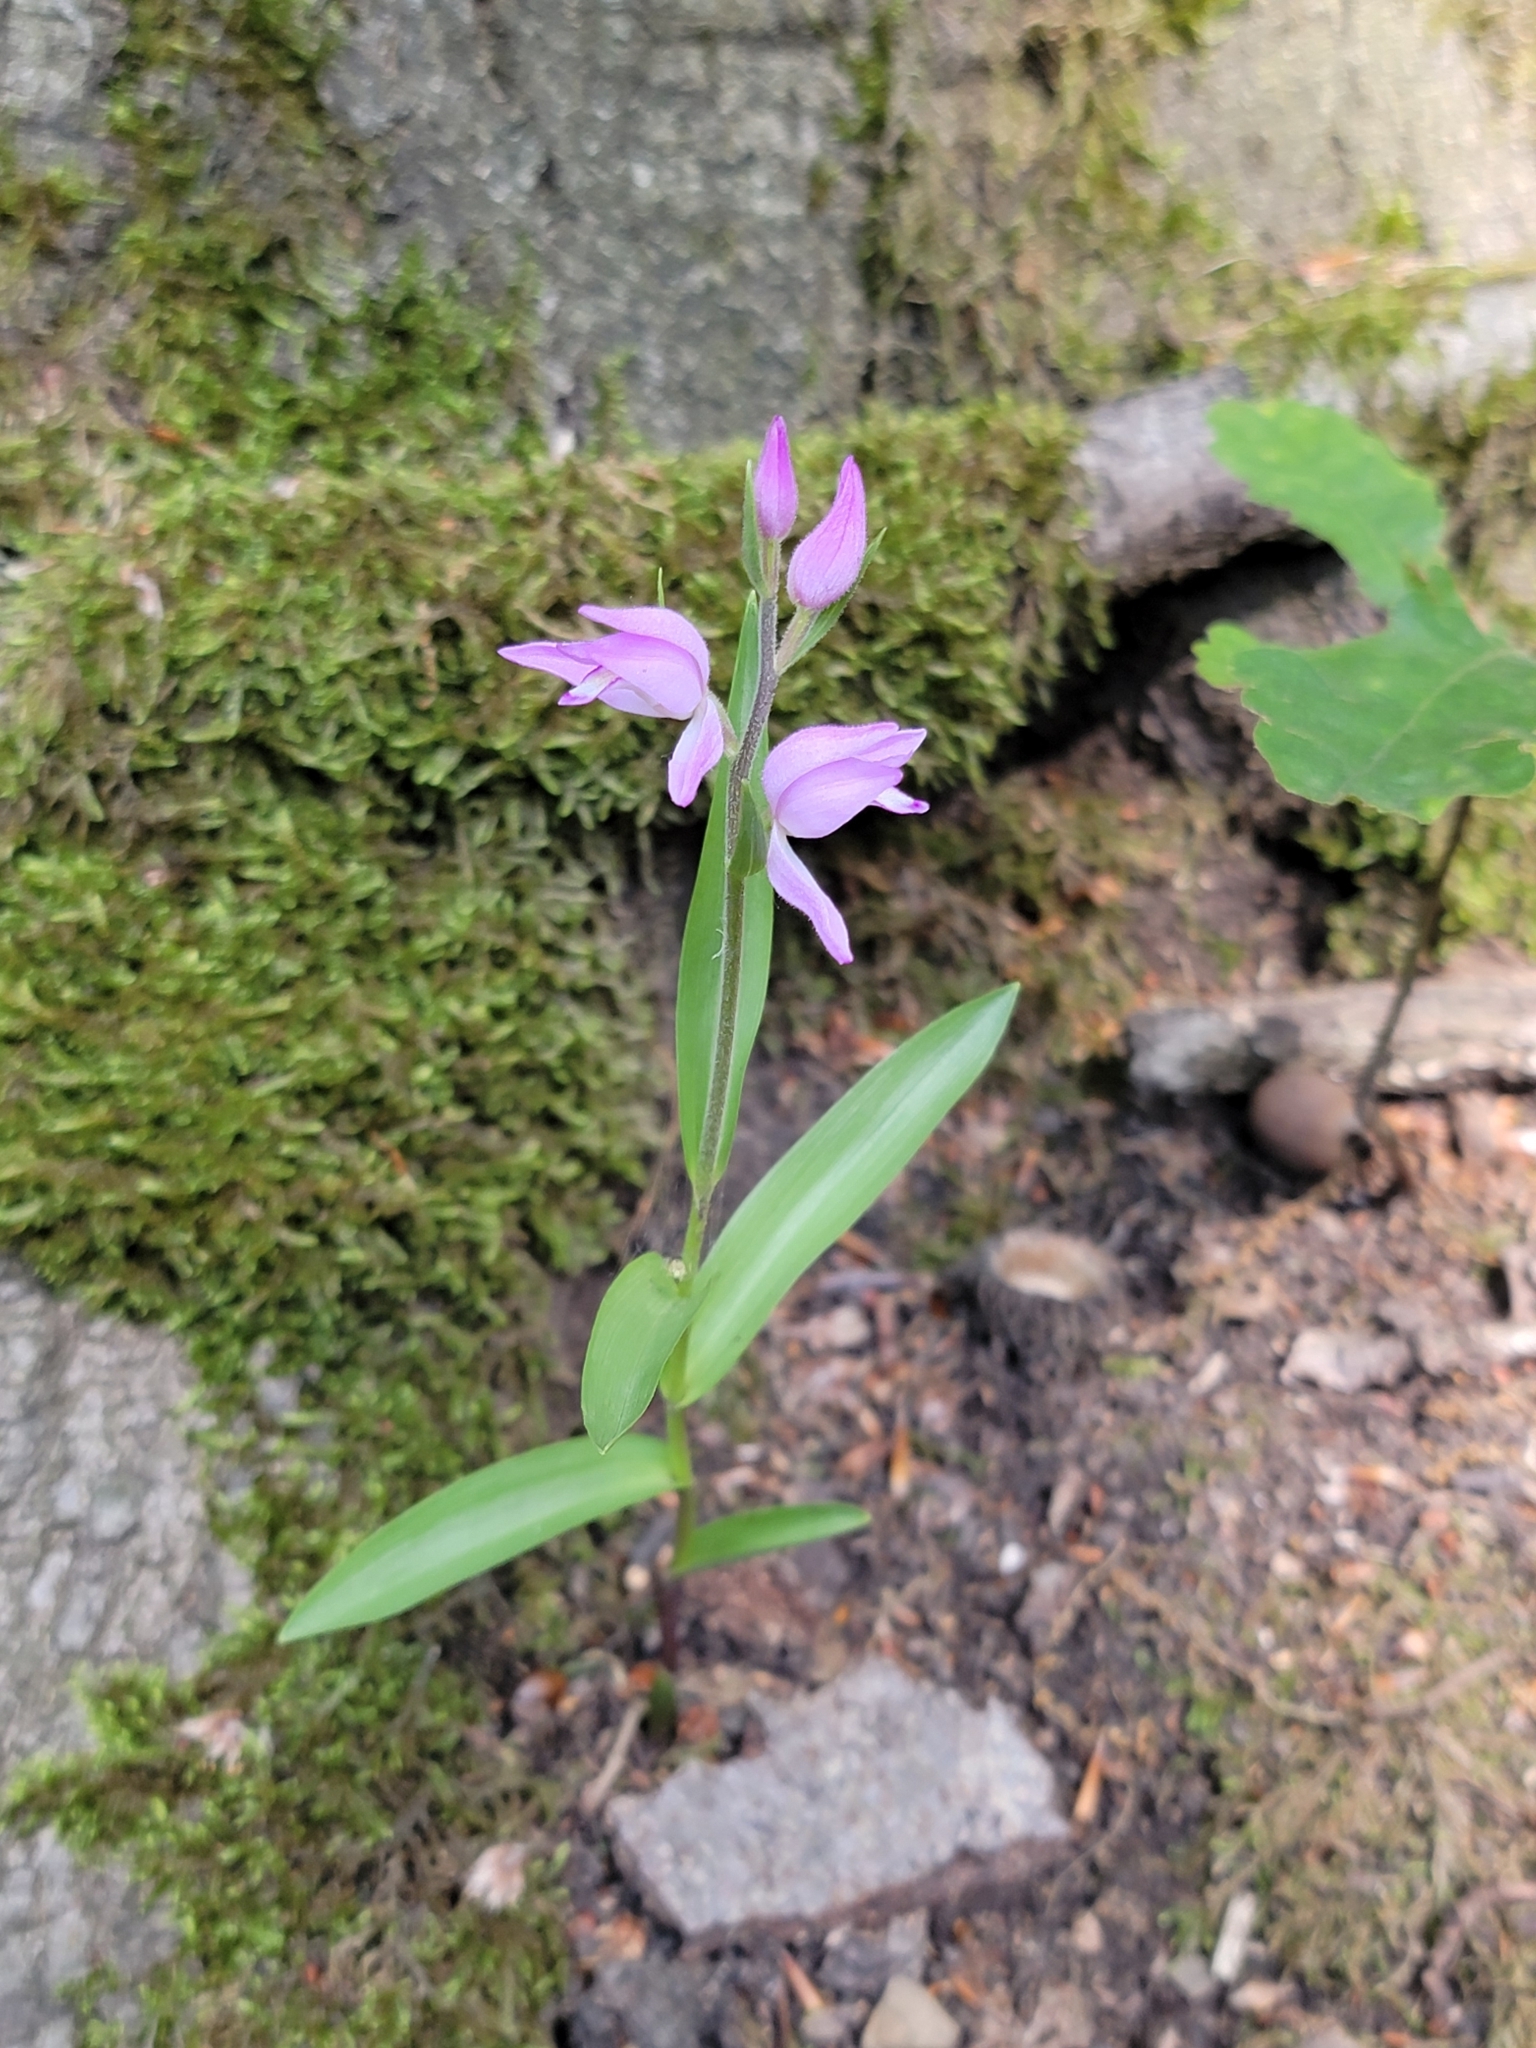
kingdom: Plantae
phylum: Tracheophyta
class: Liliopsida
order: Asparagales
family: Orchidaceae
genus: Cephalanthera
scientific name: Cephalanthera rubra
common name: Red helleborine
